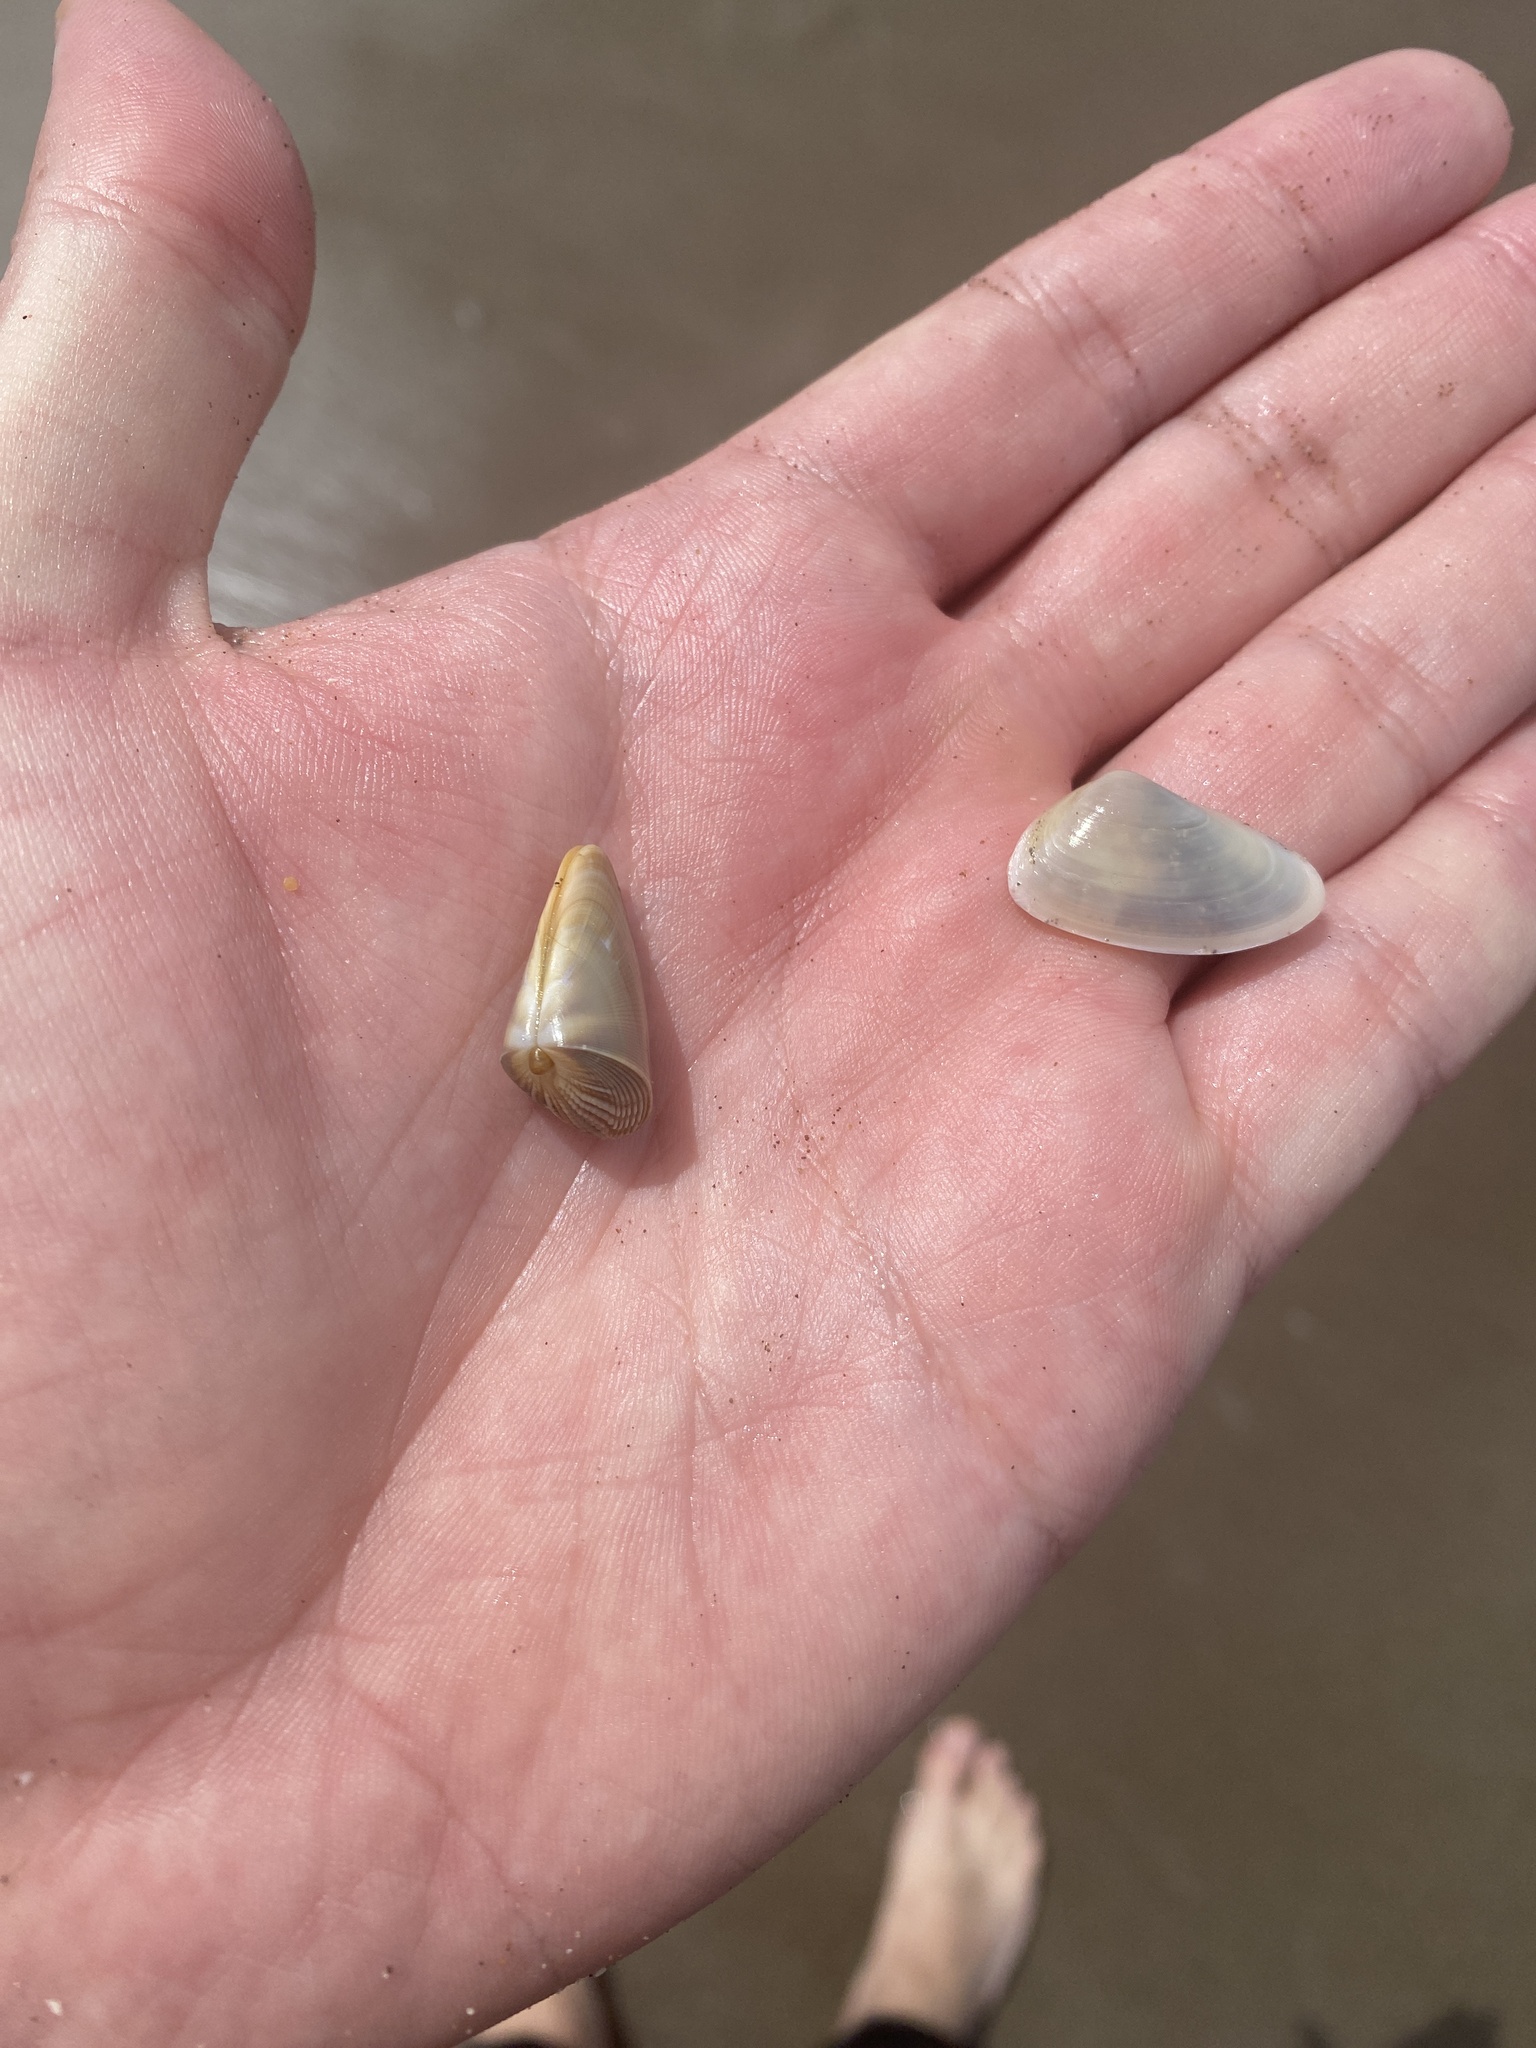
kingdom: Animalia
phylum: Mollusca
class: Bivalvia
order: Cardiida
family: Donacidae
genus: Donax
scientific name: Donax hanleyanus
